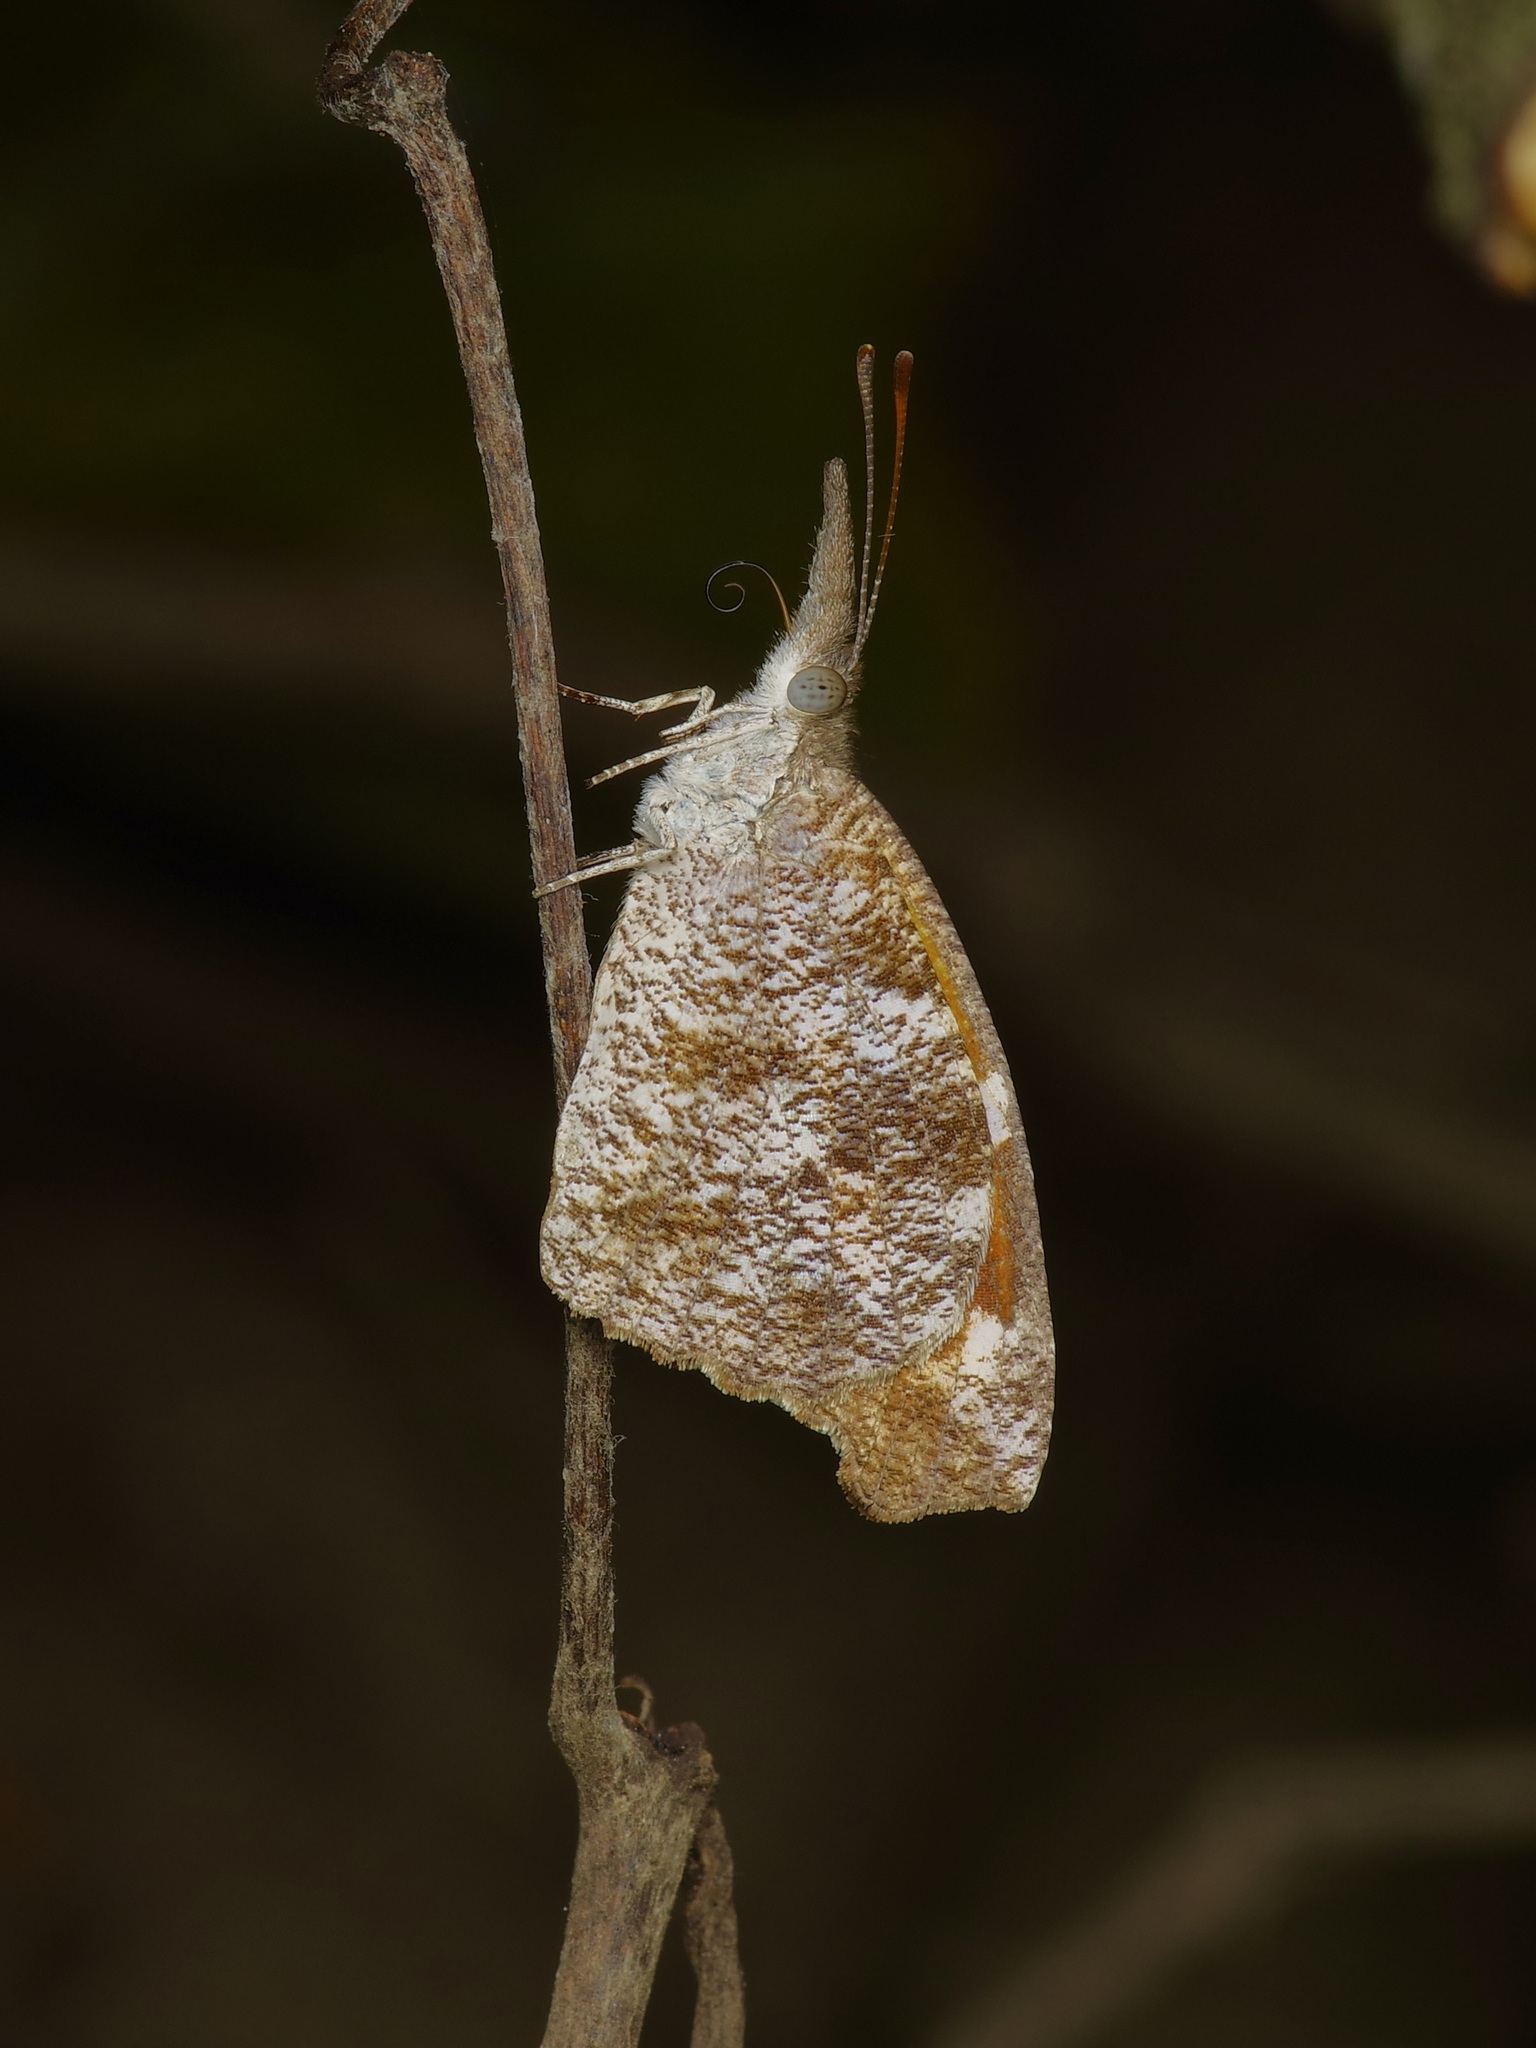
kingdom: Animalia
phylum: Arthropoda
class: Insecta
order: Lepidoptera
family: Nymphalidae
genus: Libytheana
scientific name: Libytheana carinenta
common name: American snout
